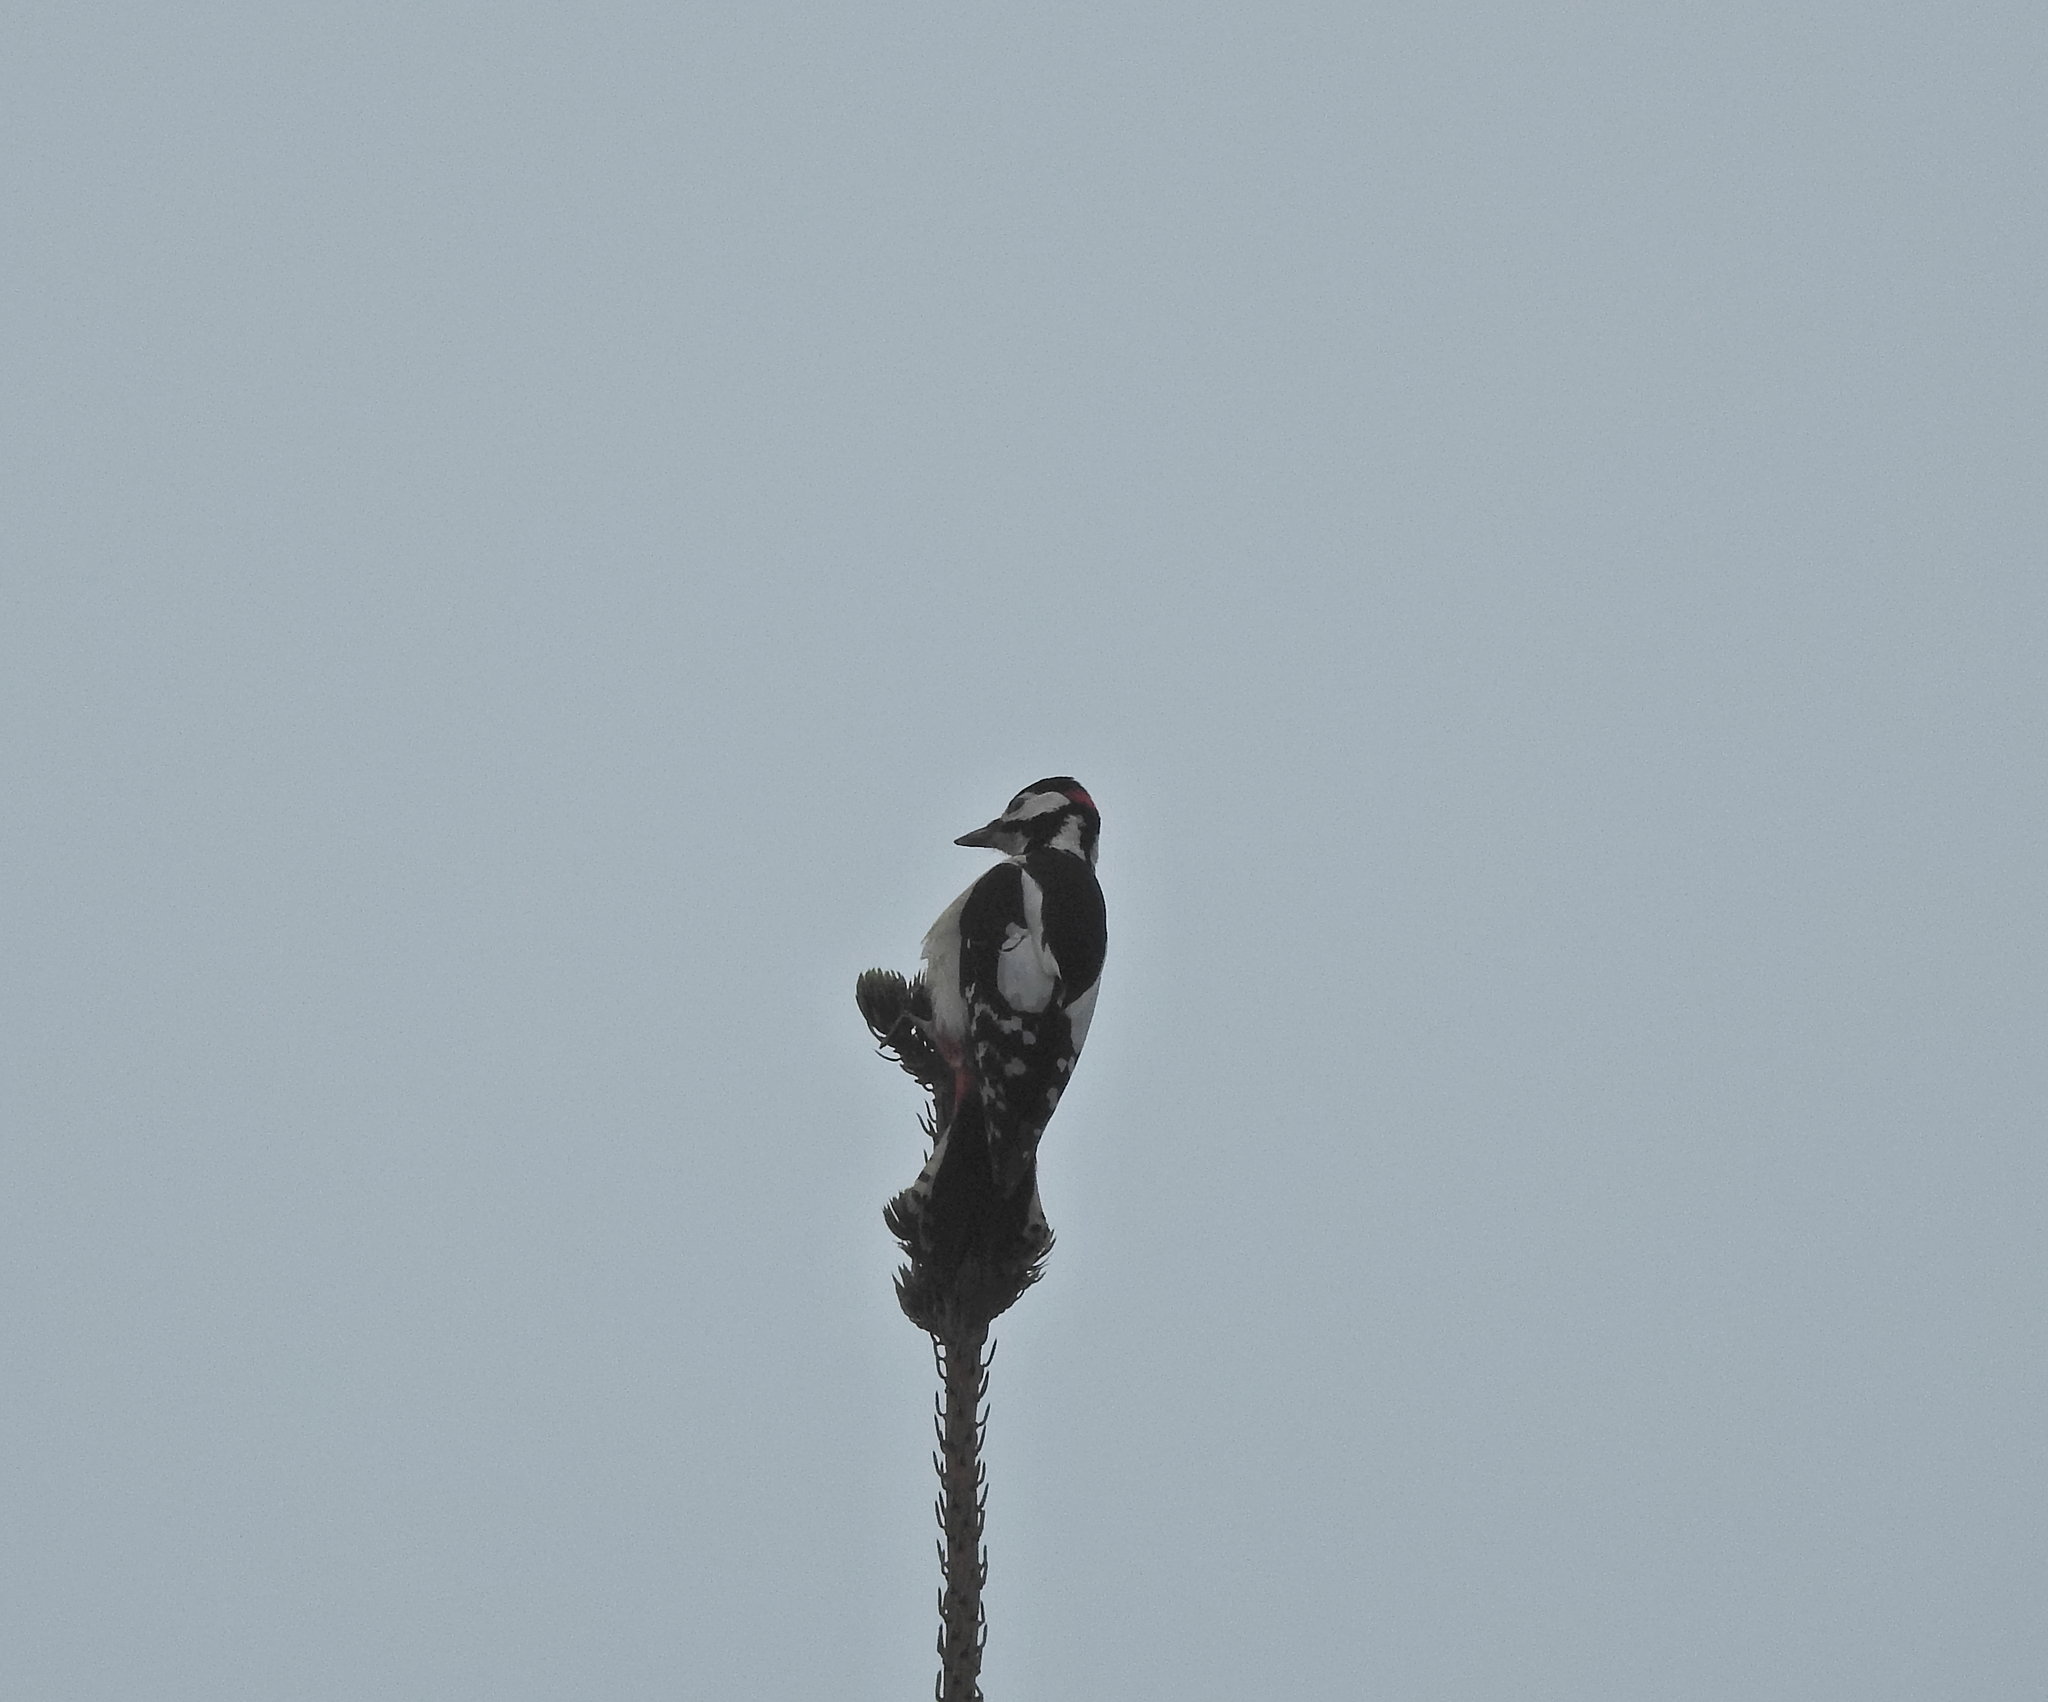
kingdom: Animalia
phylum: Chordata
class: Aves
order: Piciformes
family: Picidae
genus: Dendrocopos
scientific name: Dendrocopos major
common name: Great spotted woodpecker
